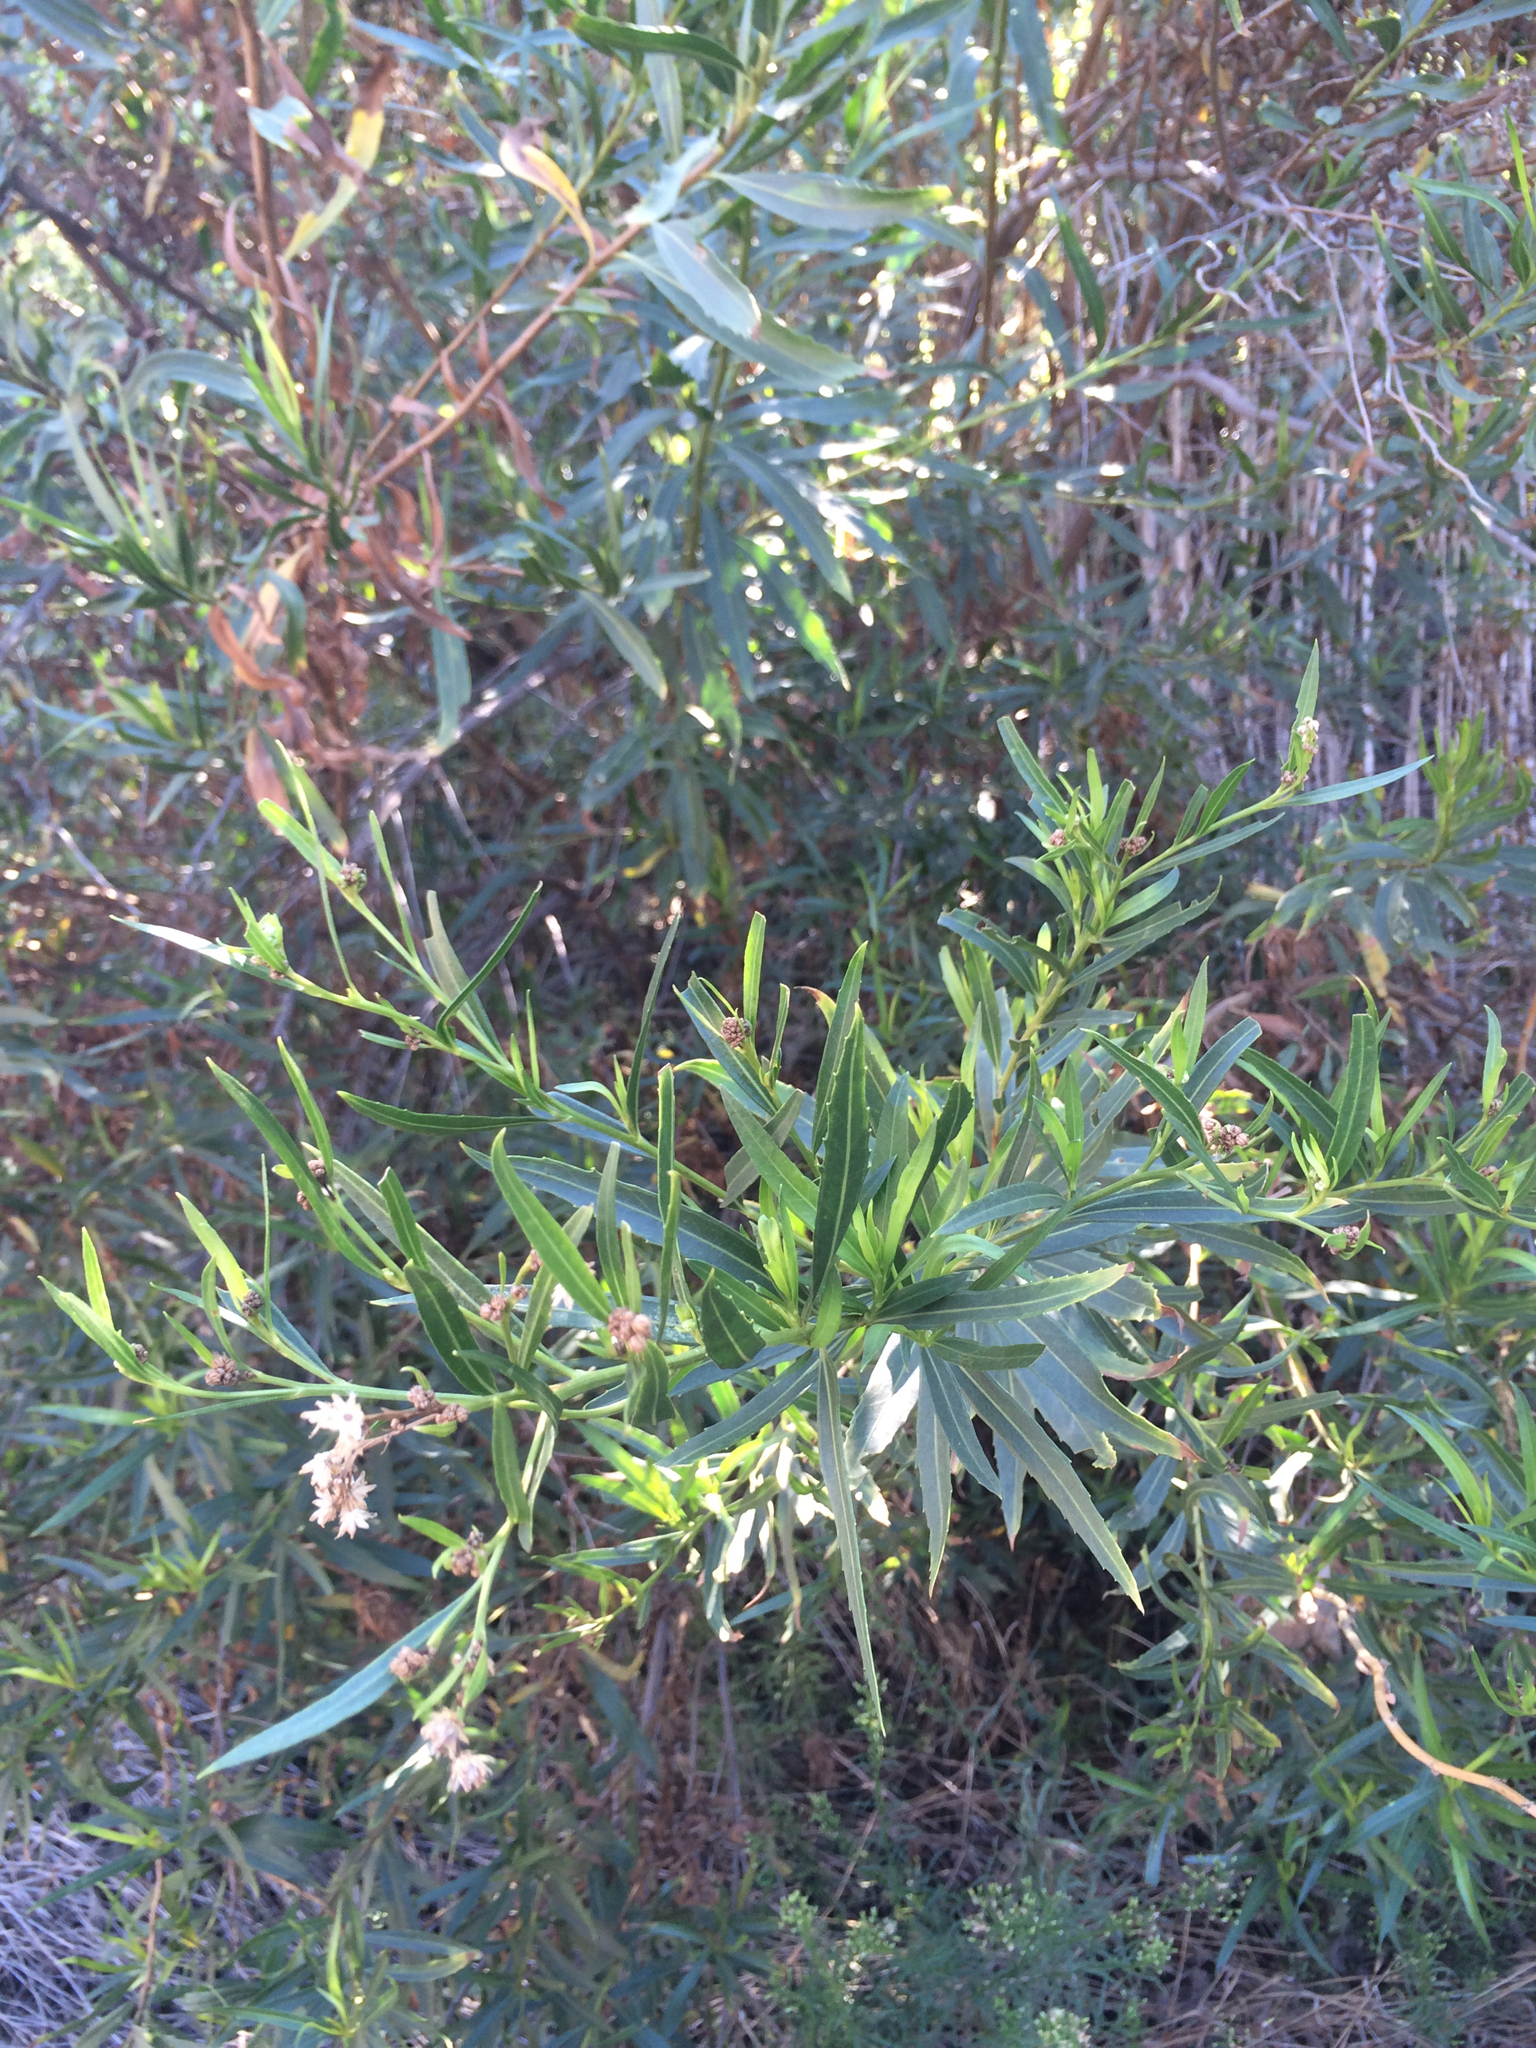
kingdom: Plantae
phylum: Tracheophyta
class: Magnoliopsida
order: Asterales
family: Asteraceae
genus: Baccharis
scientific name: Baccharis salicifolia
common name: Sticky baccharis
